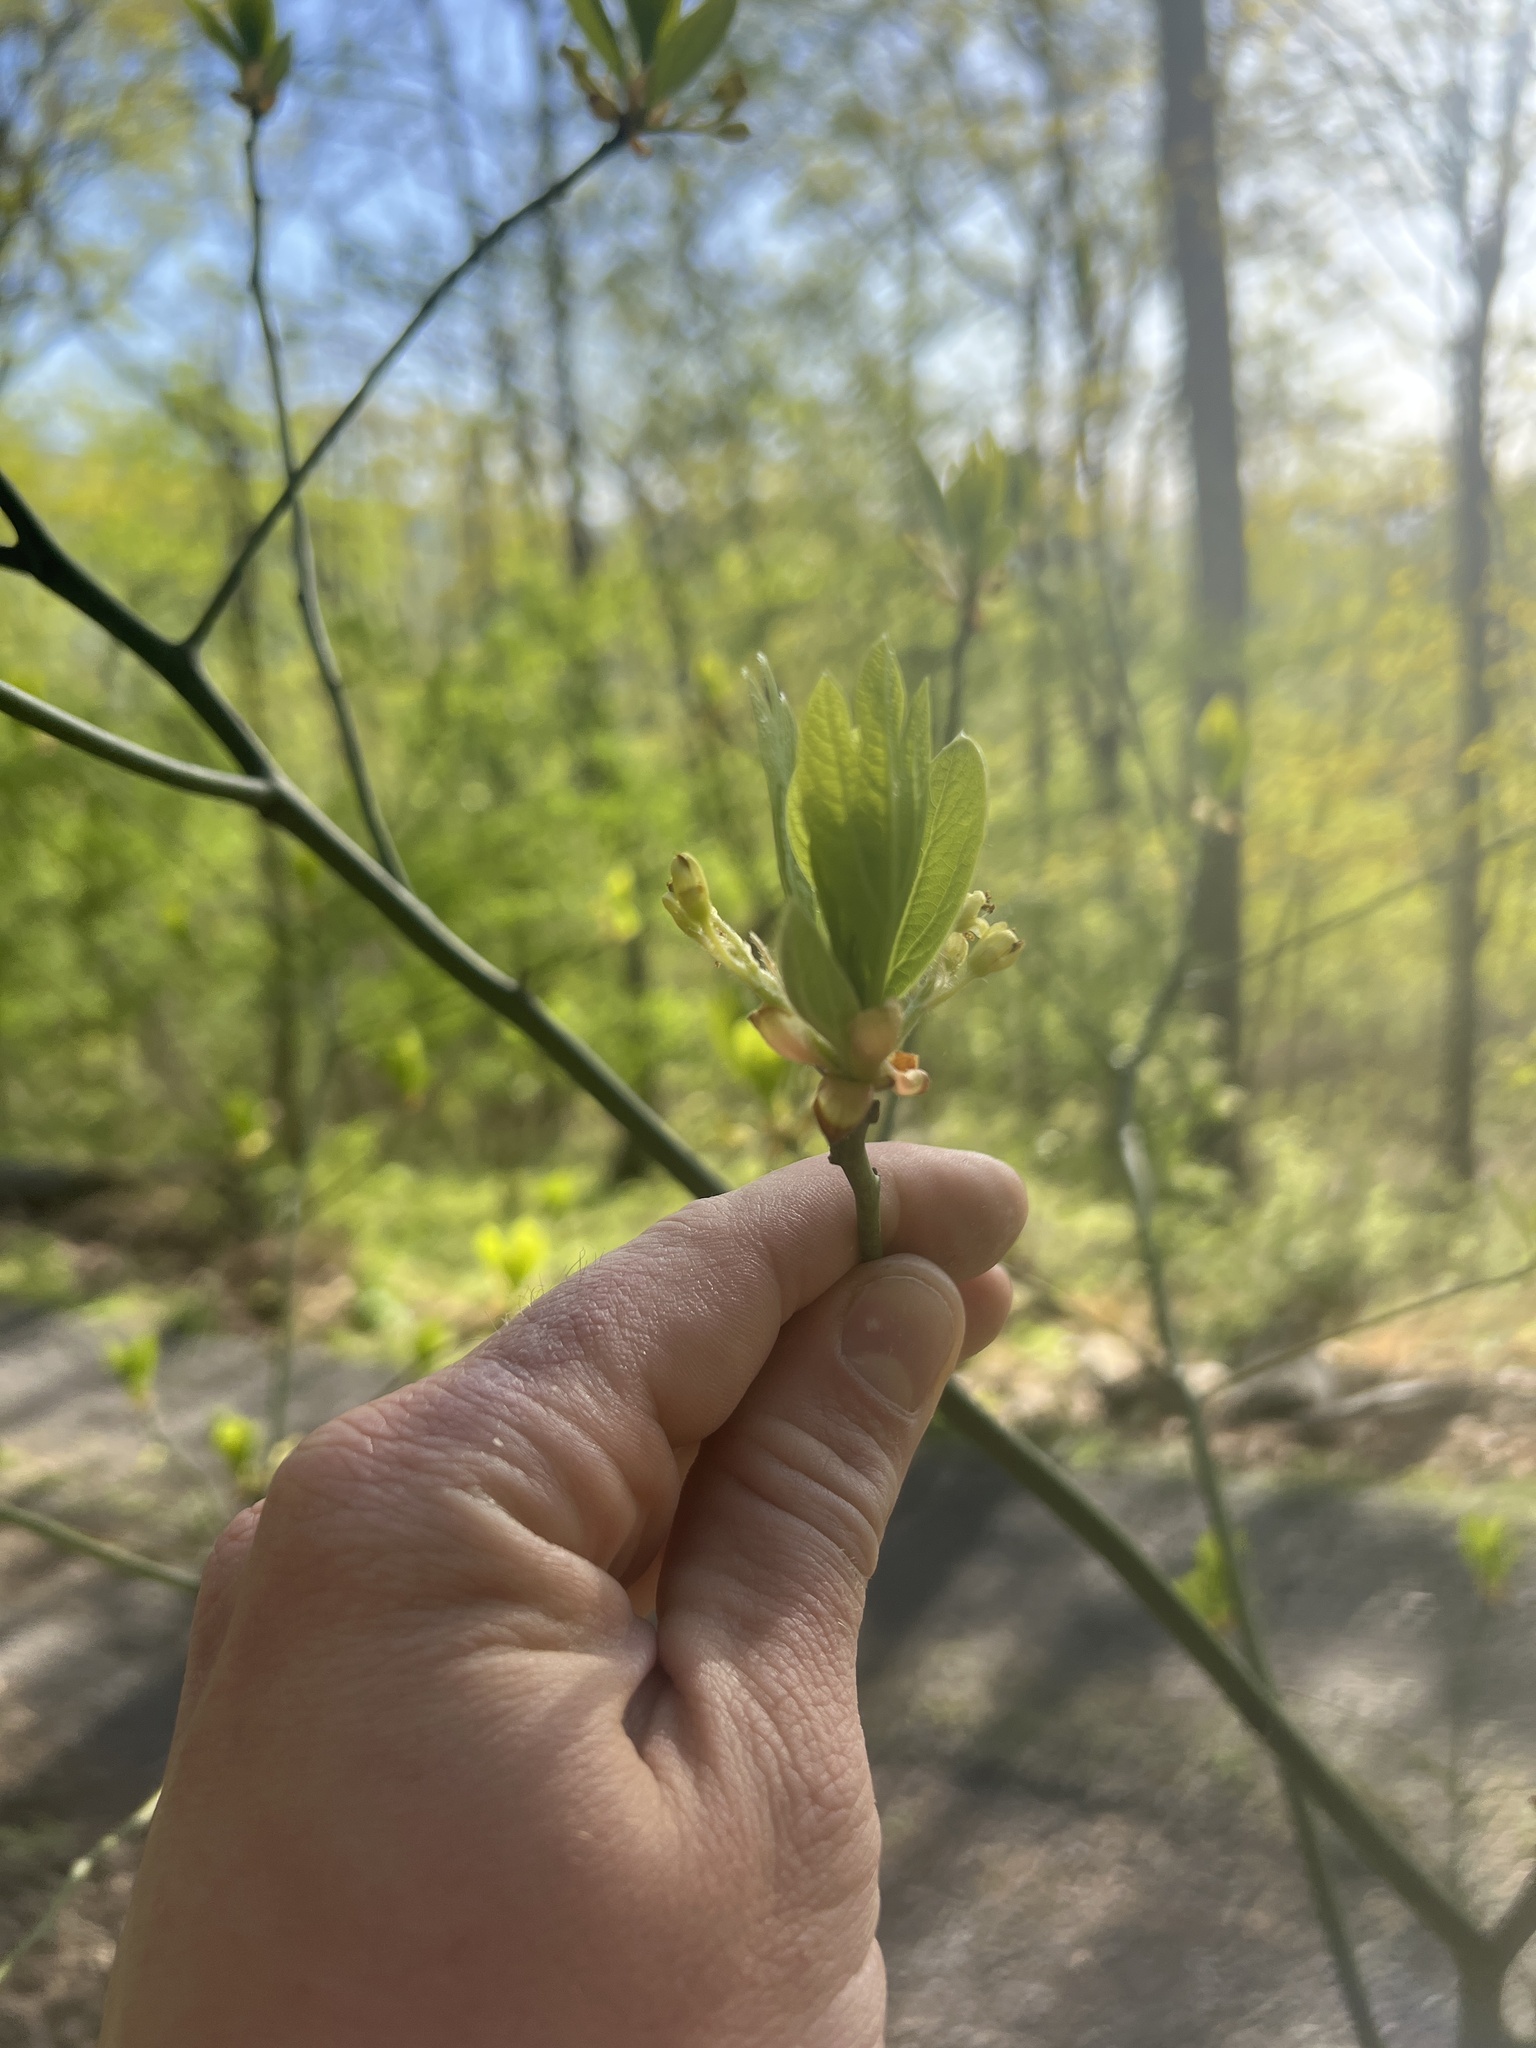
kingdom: Plantae
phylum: Tracheophyta
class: Magnoliopsida
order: Laurales
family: Lauraceae
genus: Sassafras
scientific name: Sassafras albidum
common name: Sassafras
